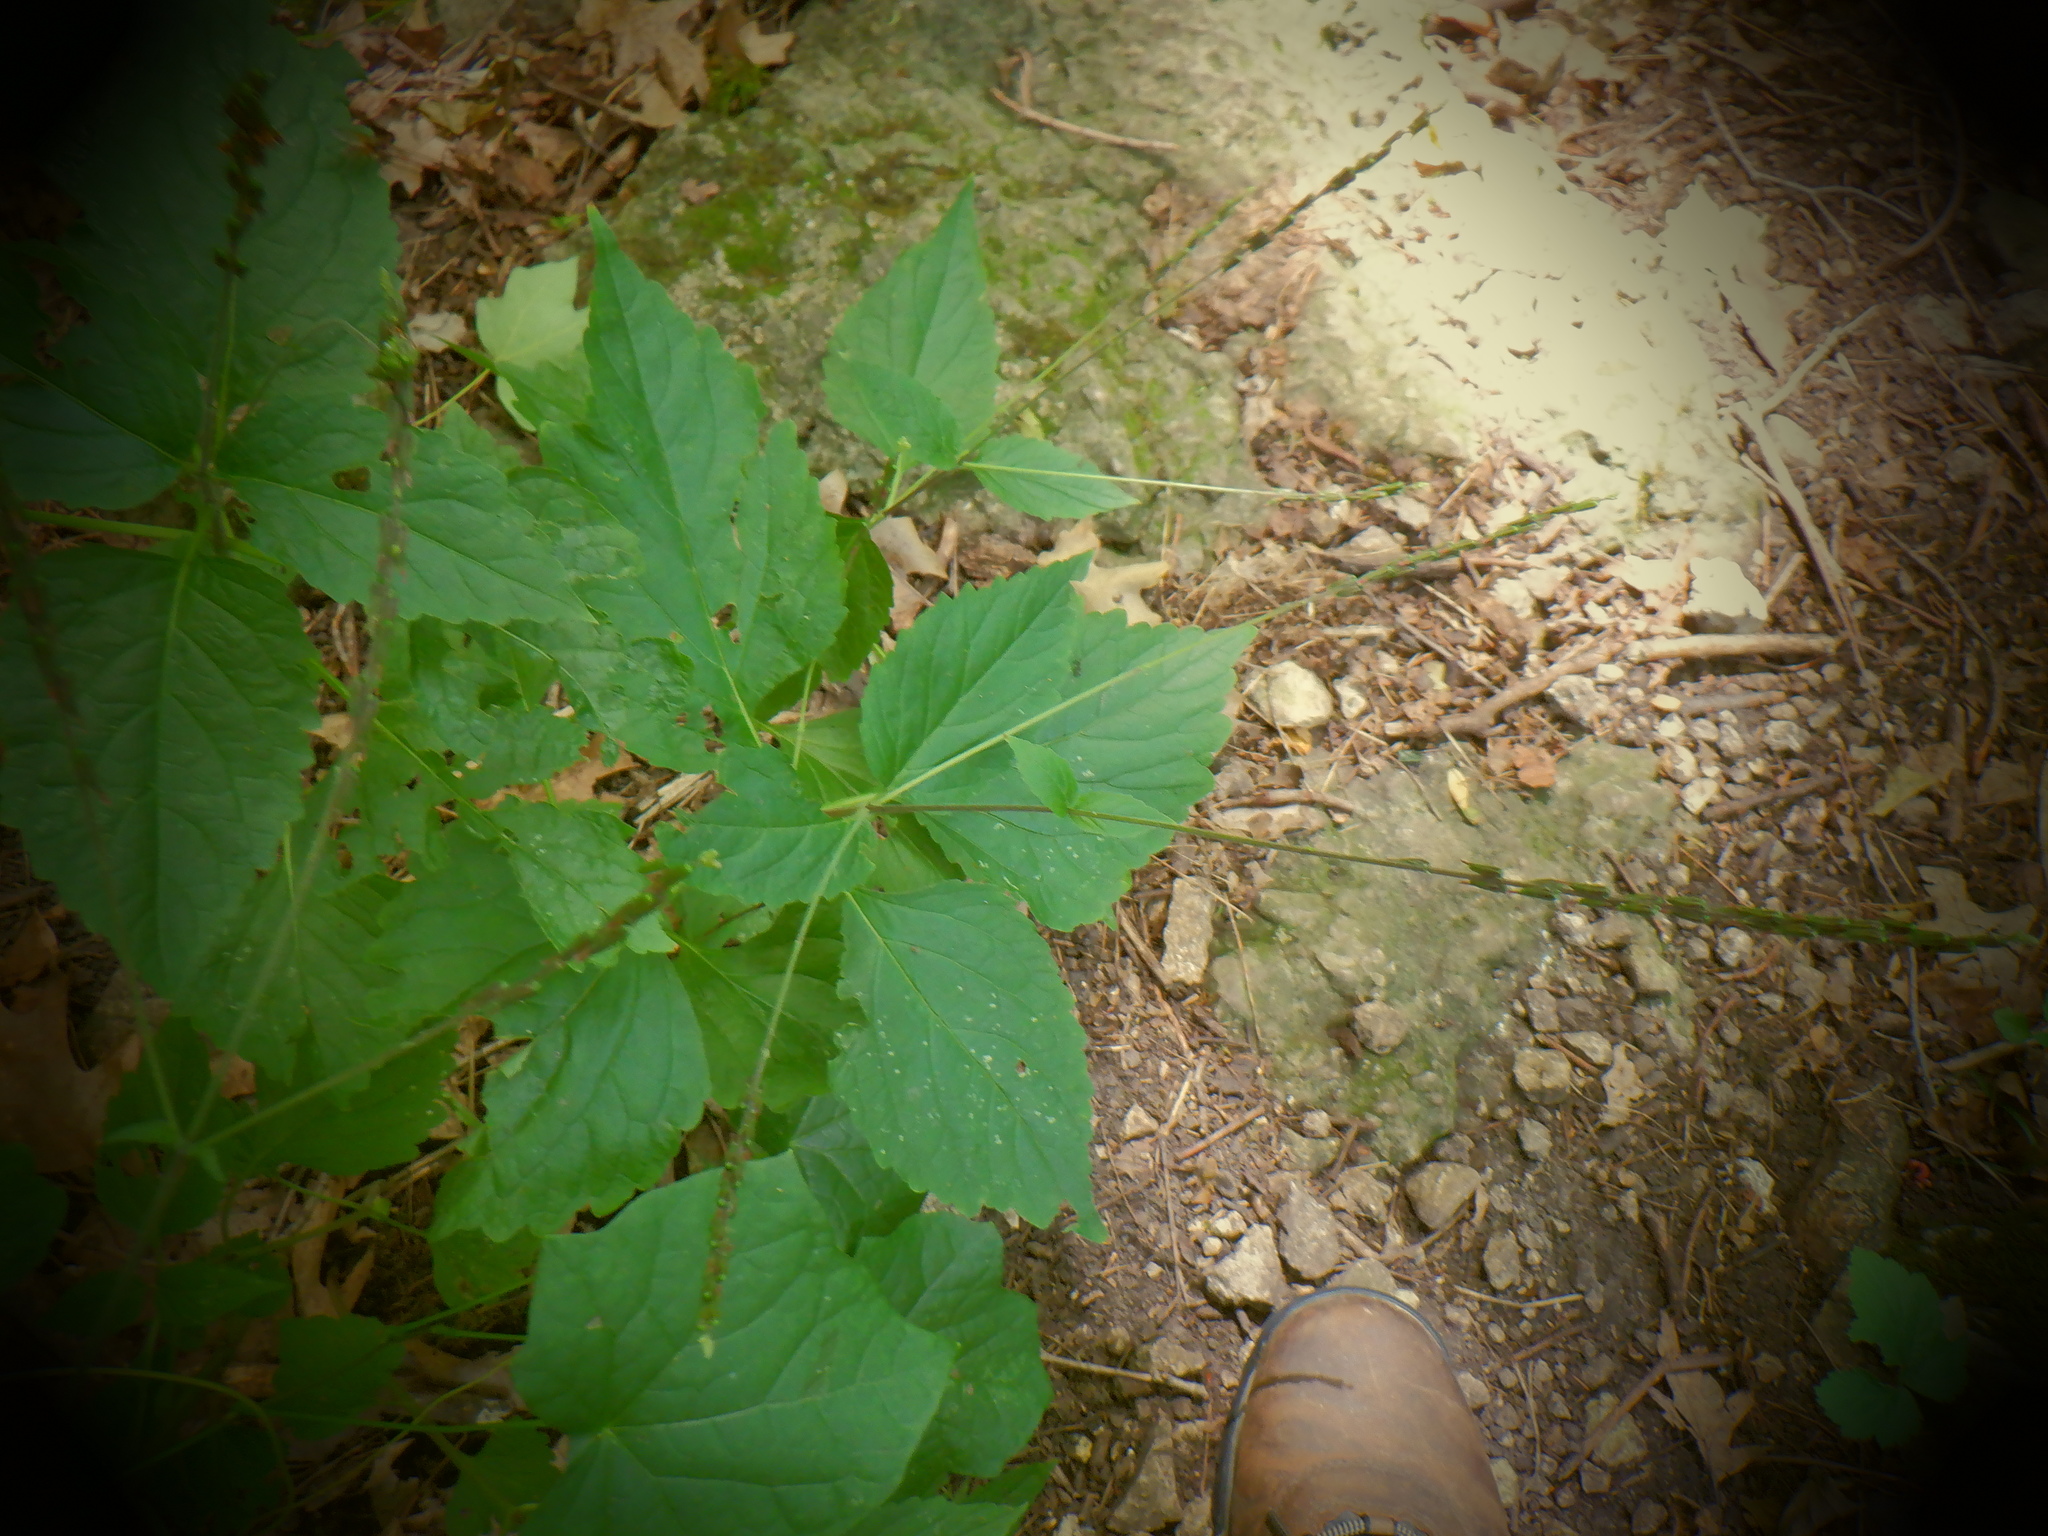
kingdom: Plantae
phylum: Tracheophyta
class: Magnoliopsida
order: Lamiales
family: Phrymaceae
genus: Phryma
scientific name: Phryma leptostachya
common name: American lopseed
